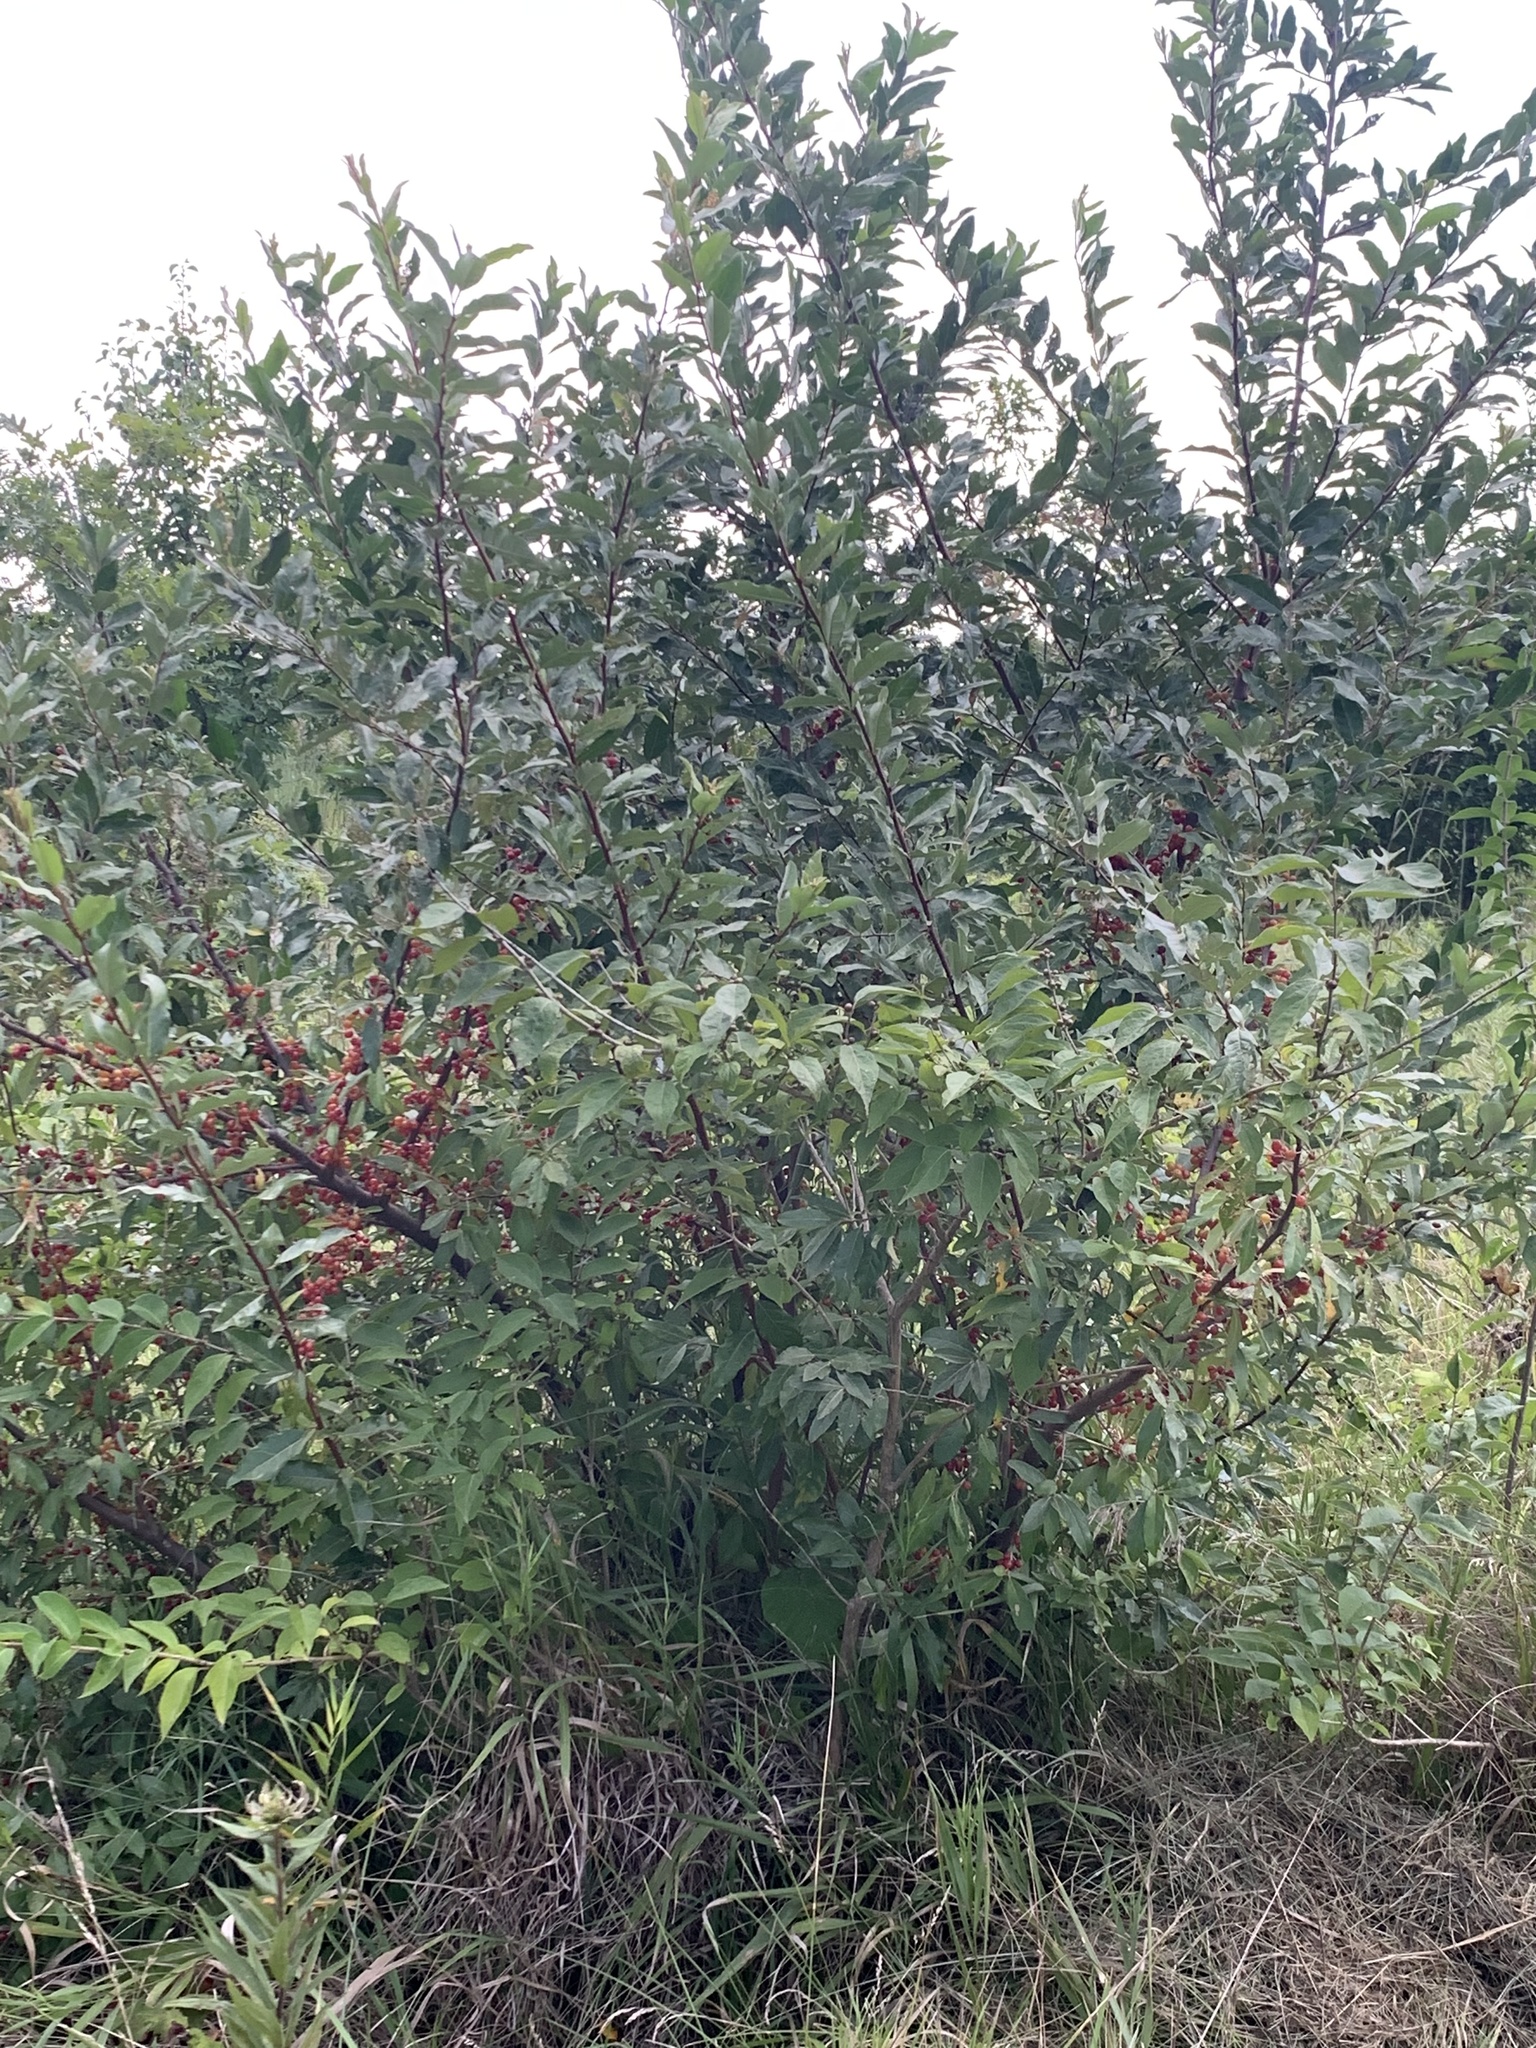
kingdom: Plantae
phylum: Tracheophyta
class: Magnoliopsida
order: Rosales
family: Elaeagnaceae
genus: Elaeagnus
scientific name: Elaeagnus umbellata
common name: Autumn olive
